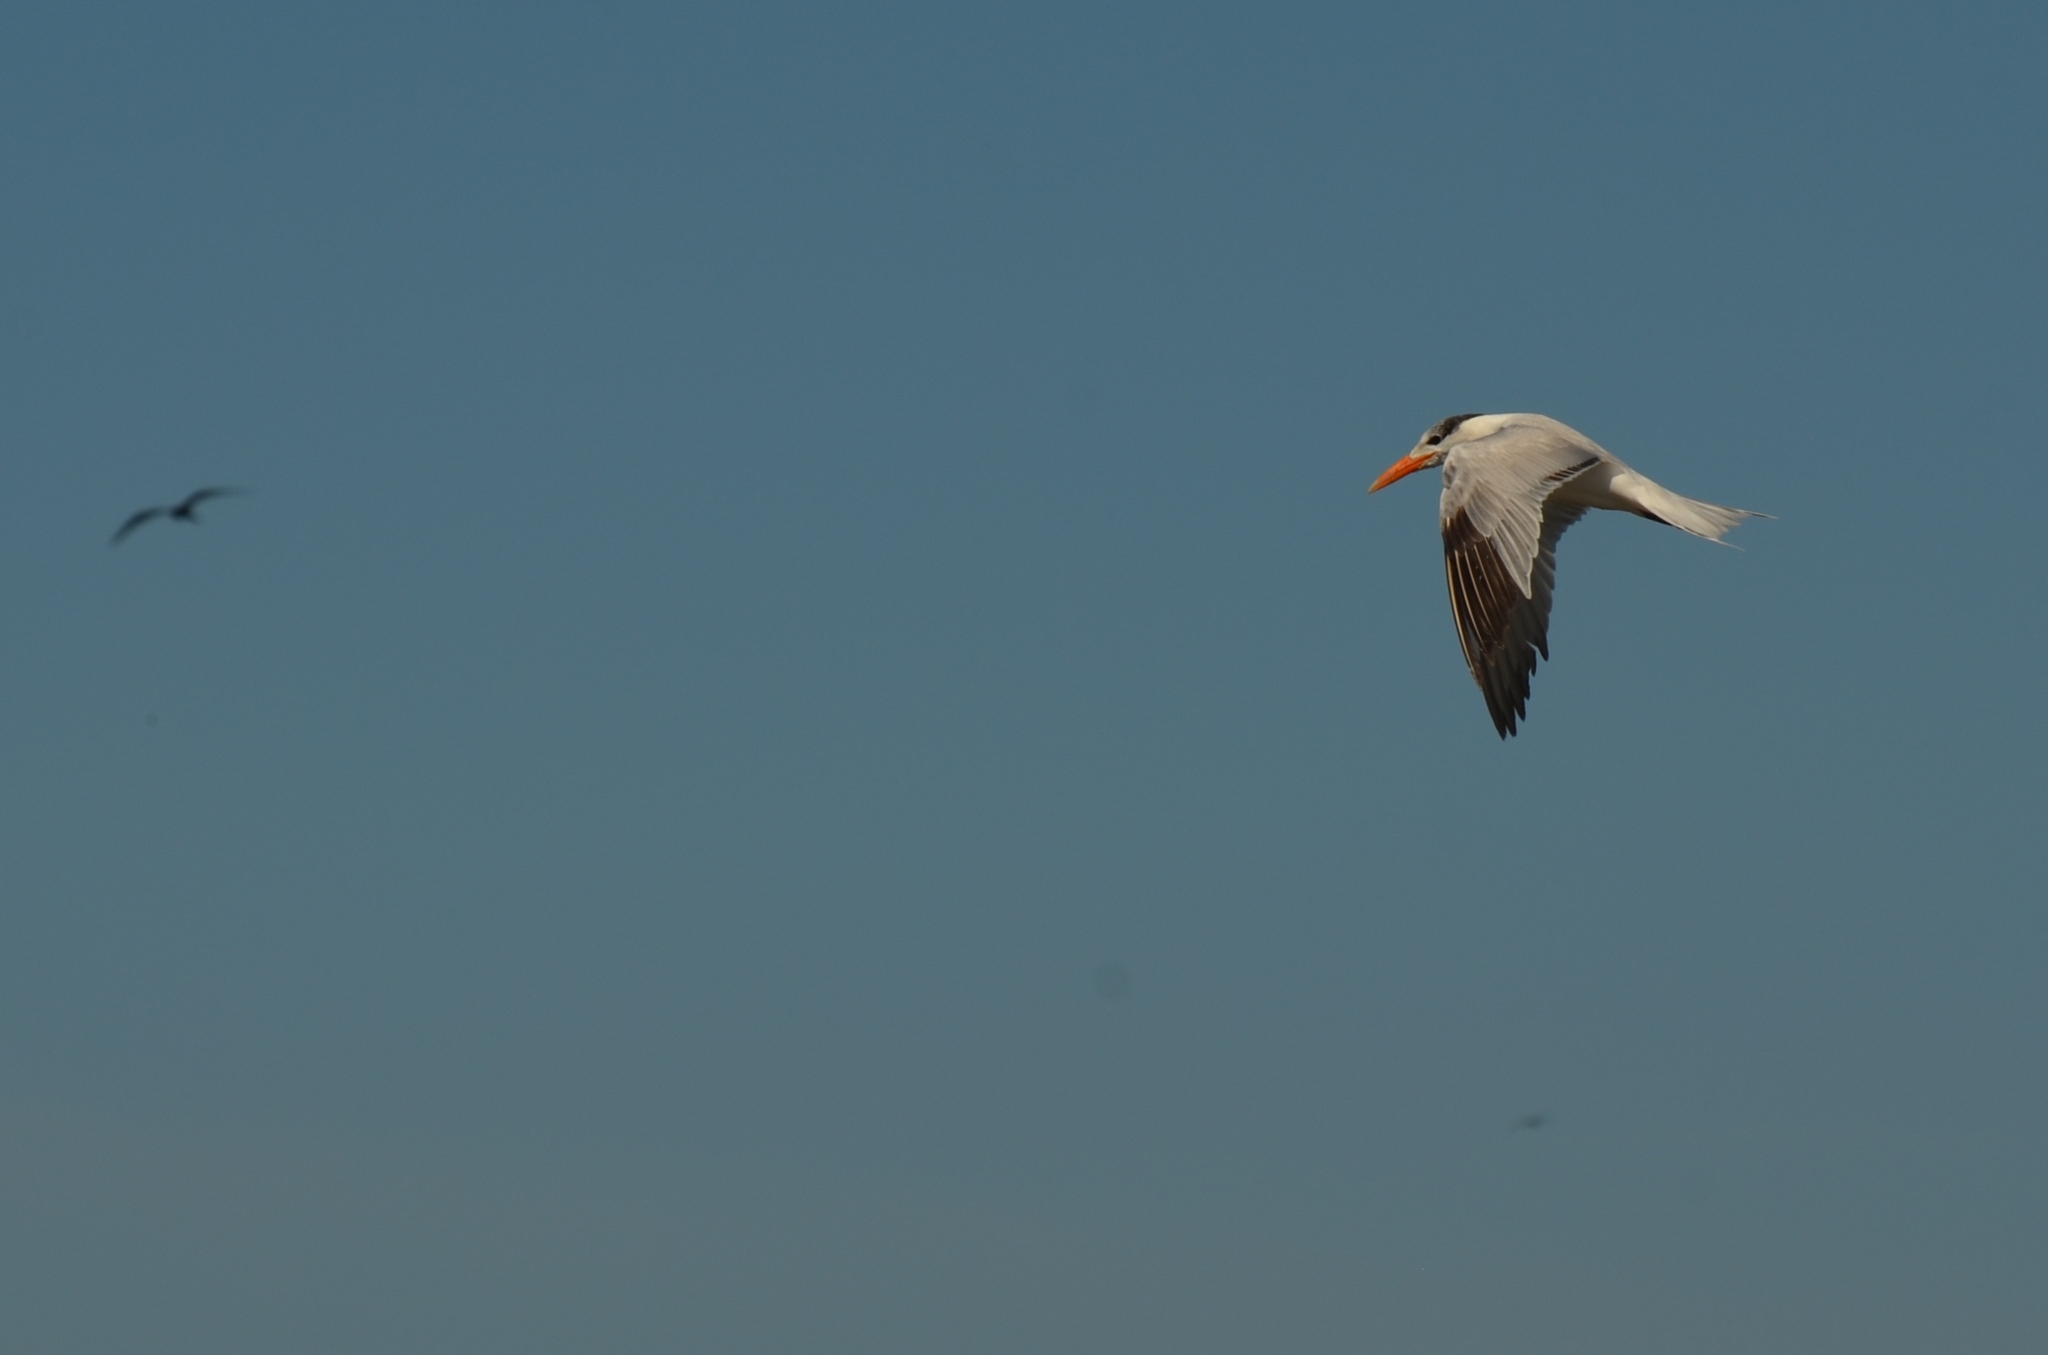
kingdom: Animalia
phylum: Chordata
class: Aves
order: Charadriiformes
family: Laridae
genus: Thalasseus
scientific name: Thalasseus maximus
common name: Royal tern
